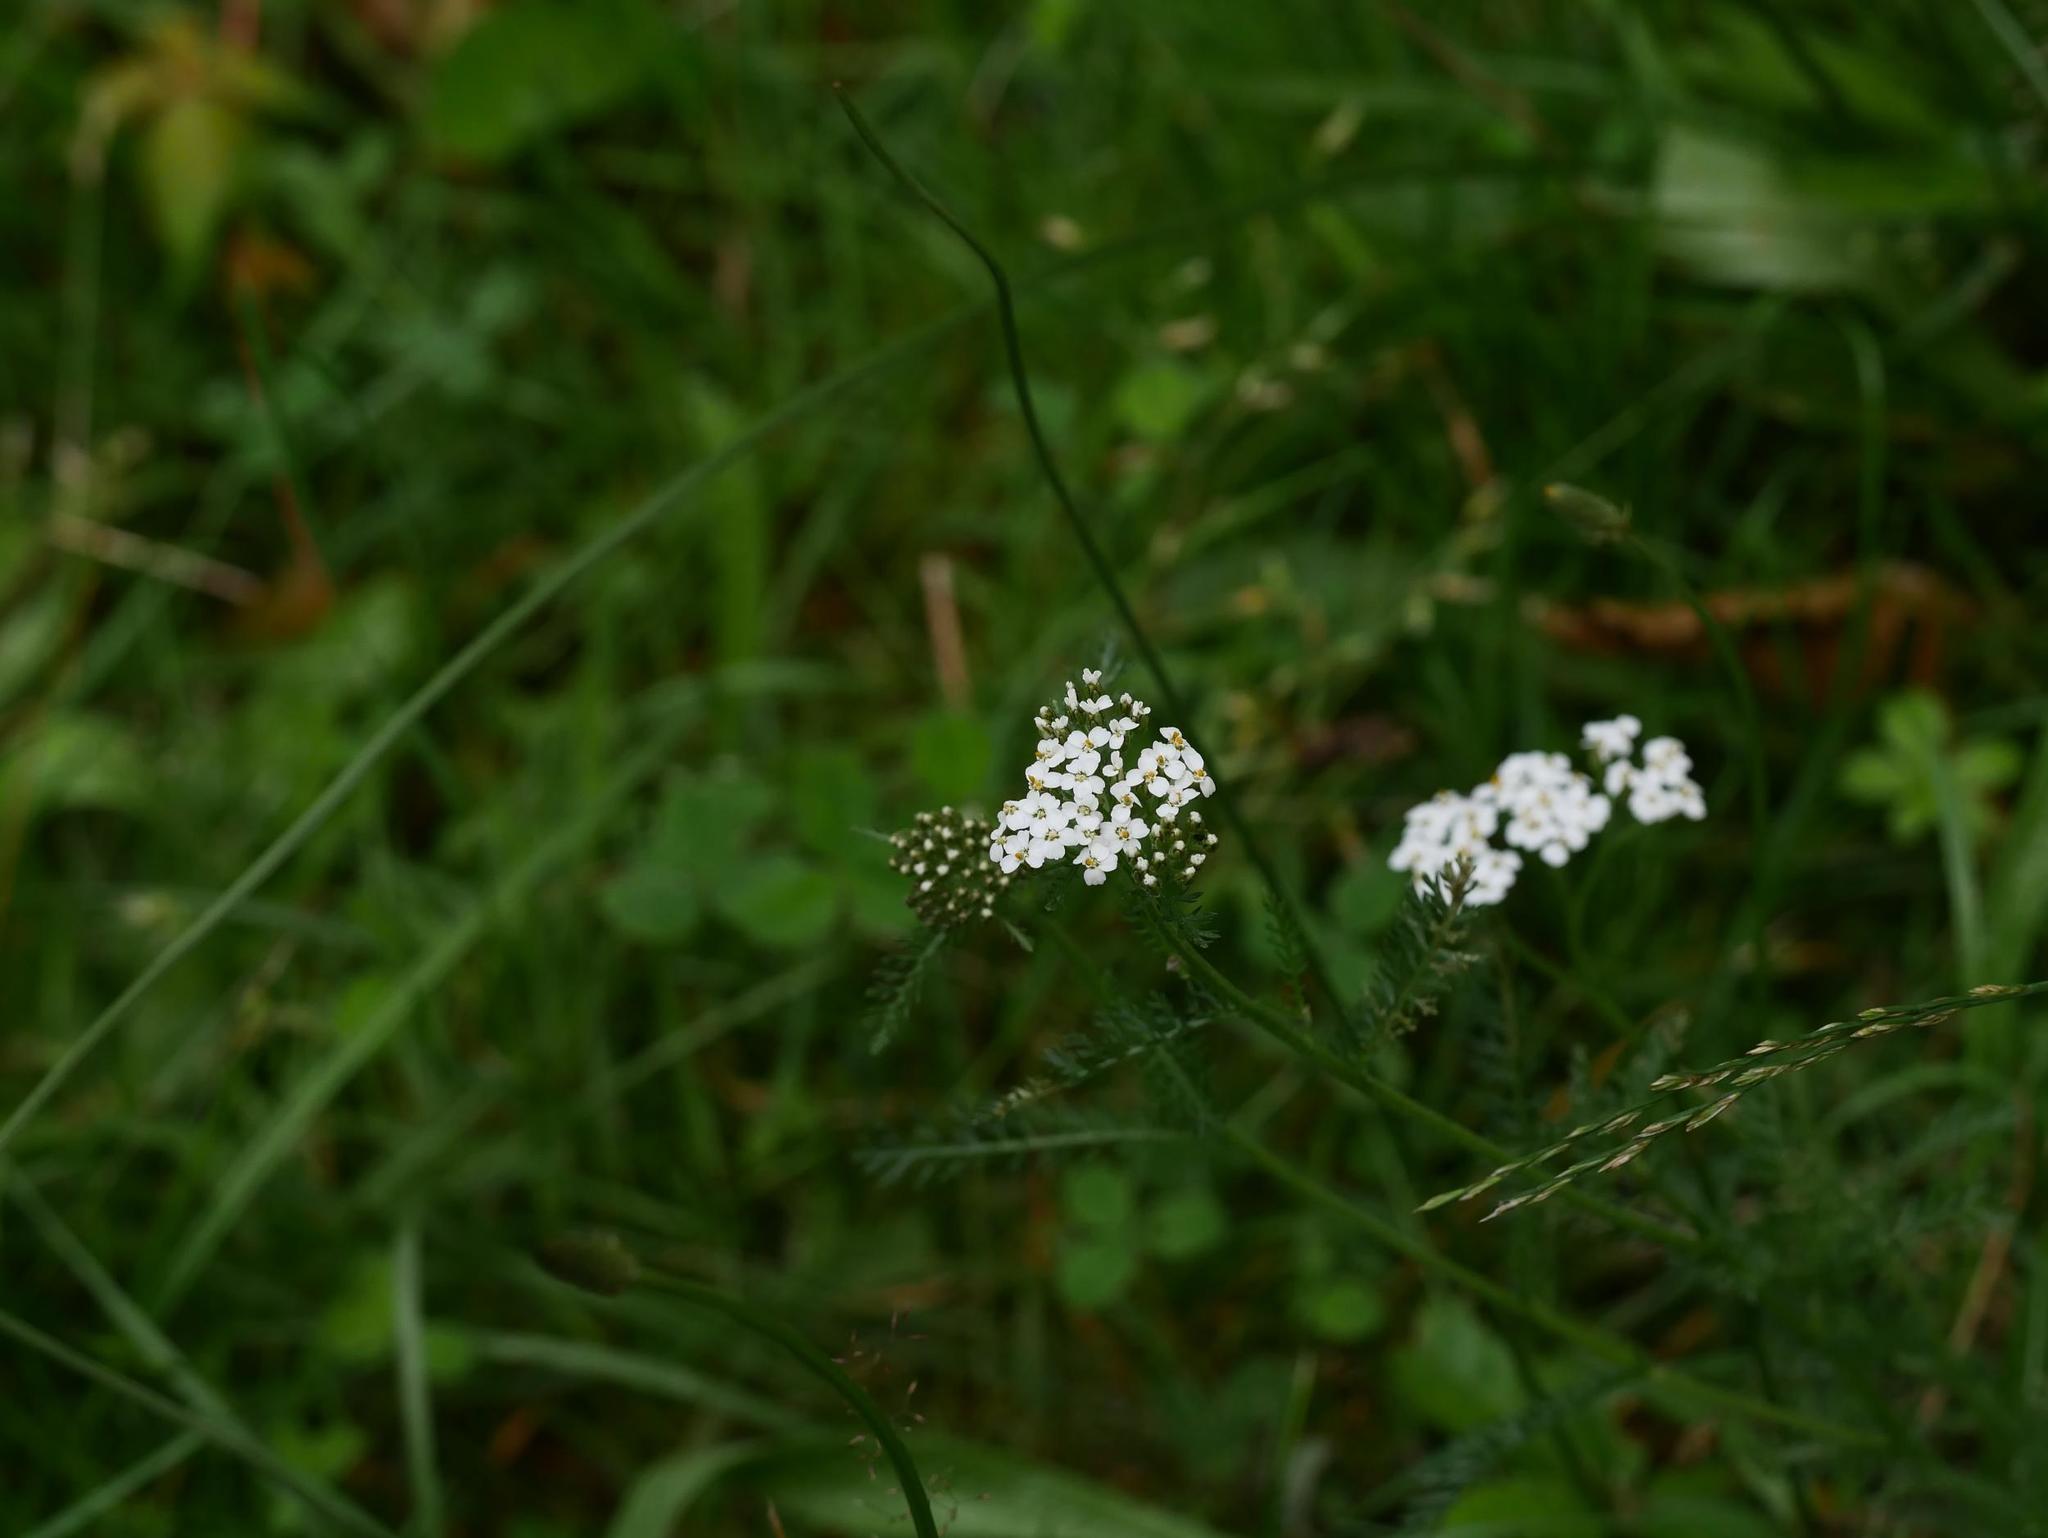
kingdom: Plantae
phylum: Tracheophyta
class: Magnoliopsida
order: Asterales
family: Asteraceae
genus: Achillea
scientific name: Achillea millefolium
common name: Yarrow
